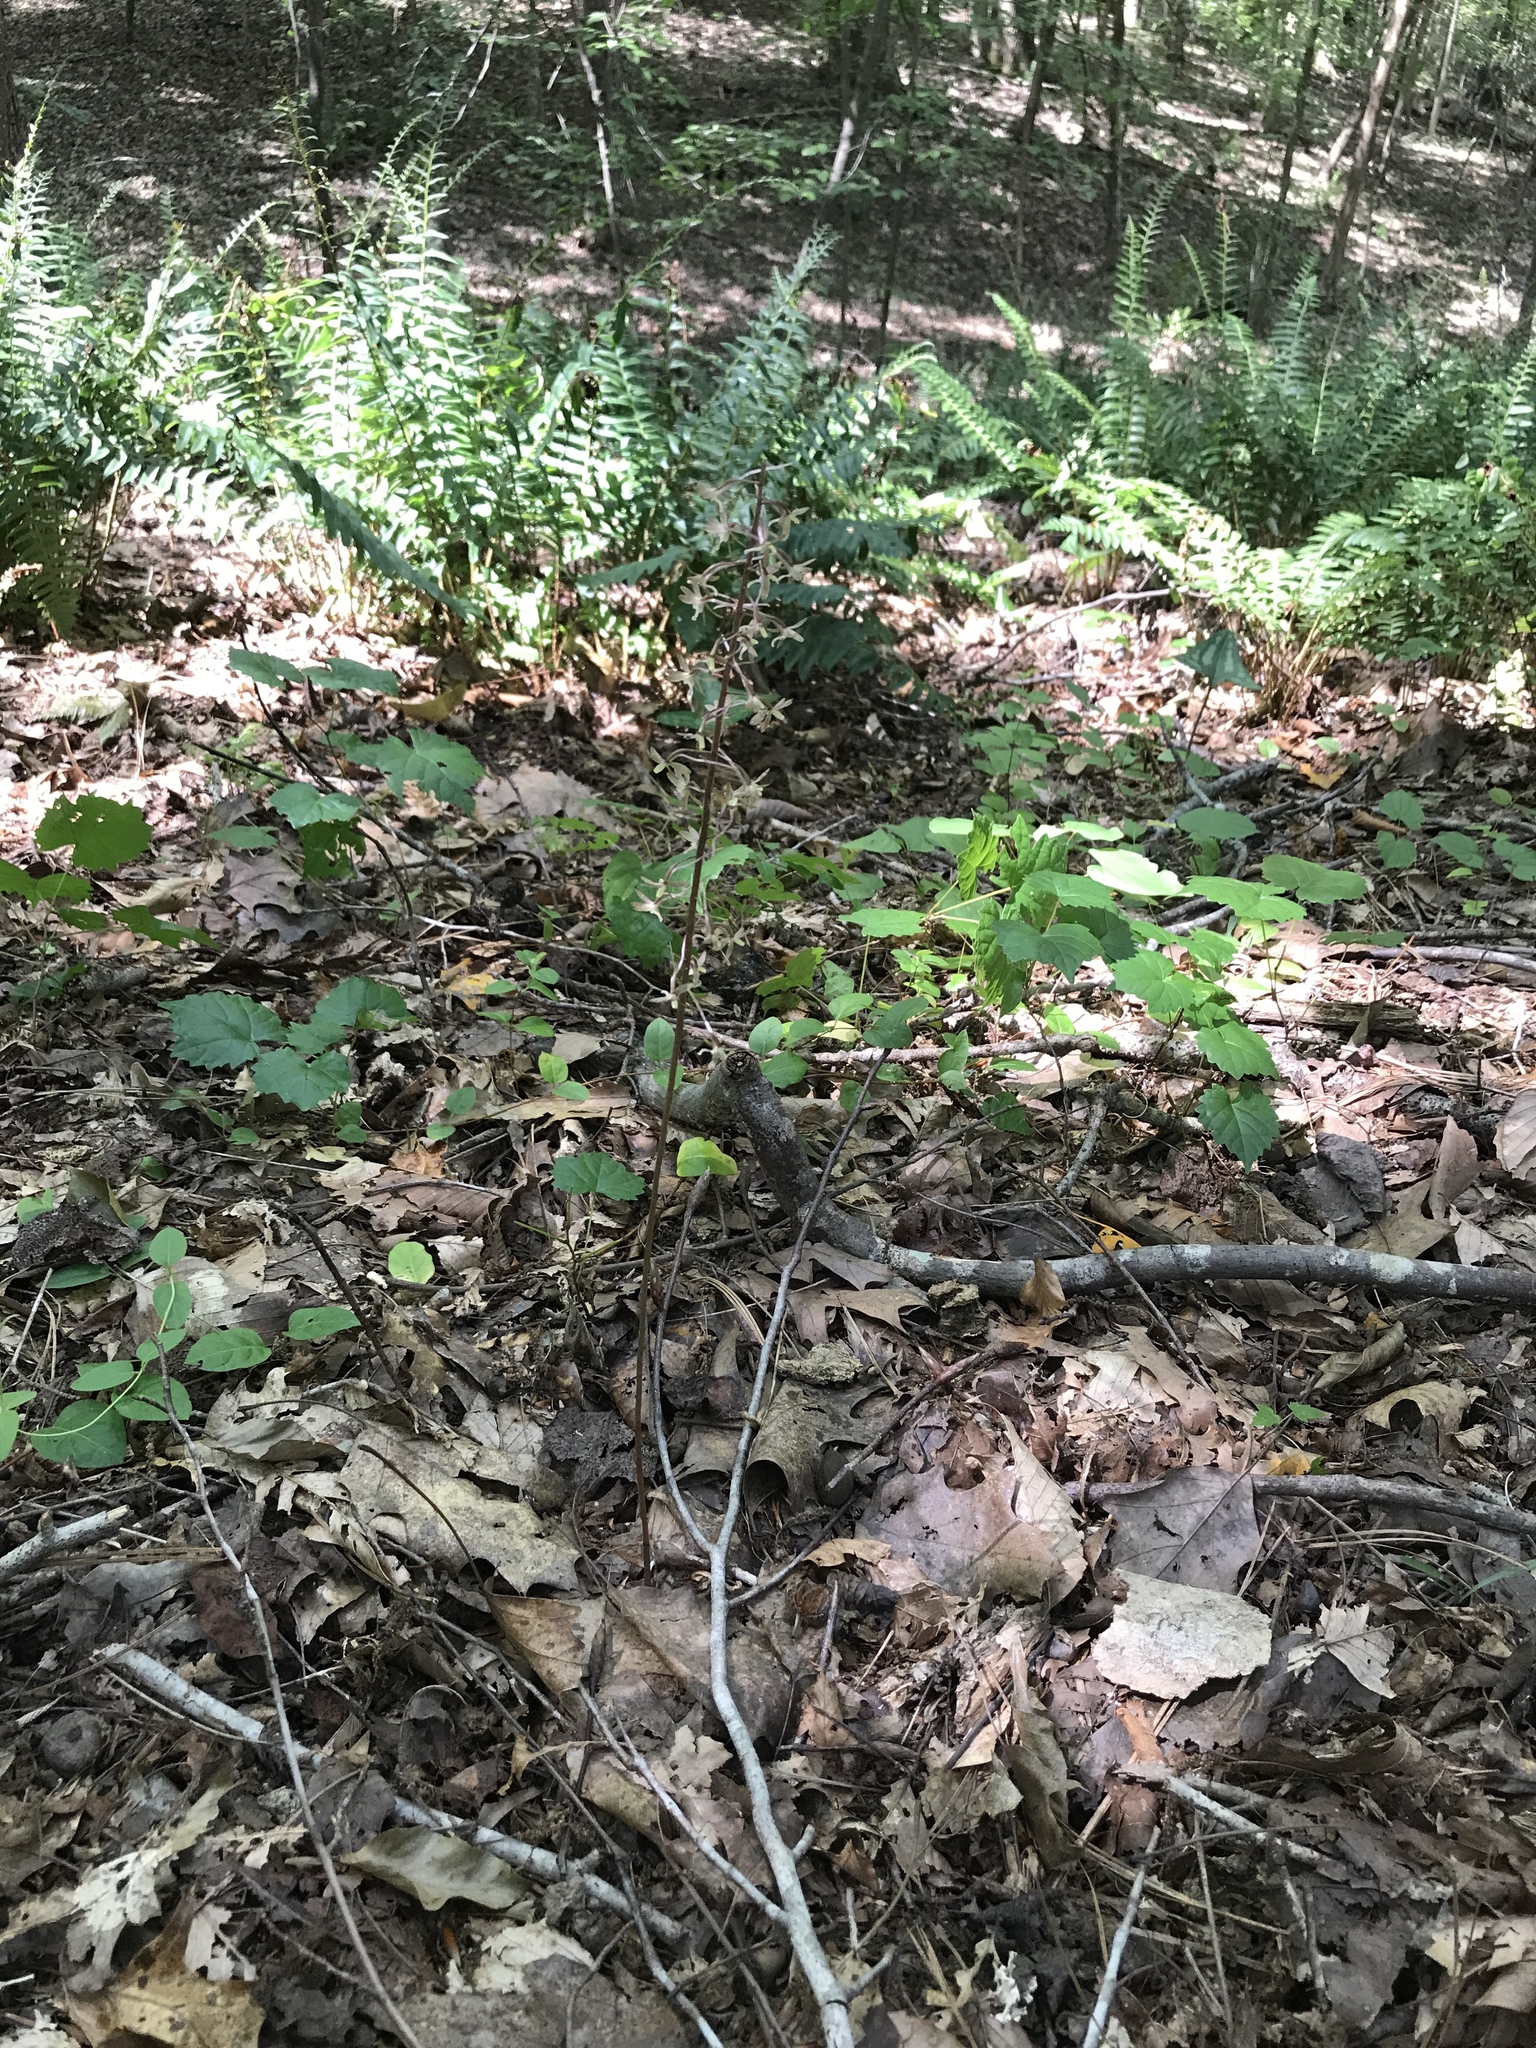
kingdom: Plantae
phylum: Tracheophyta
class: Liliopsida
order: Asparagales
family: Orchidaceae
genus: Tipularia
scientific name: Tipularia discolor
